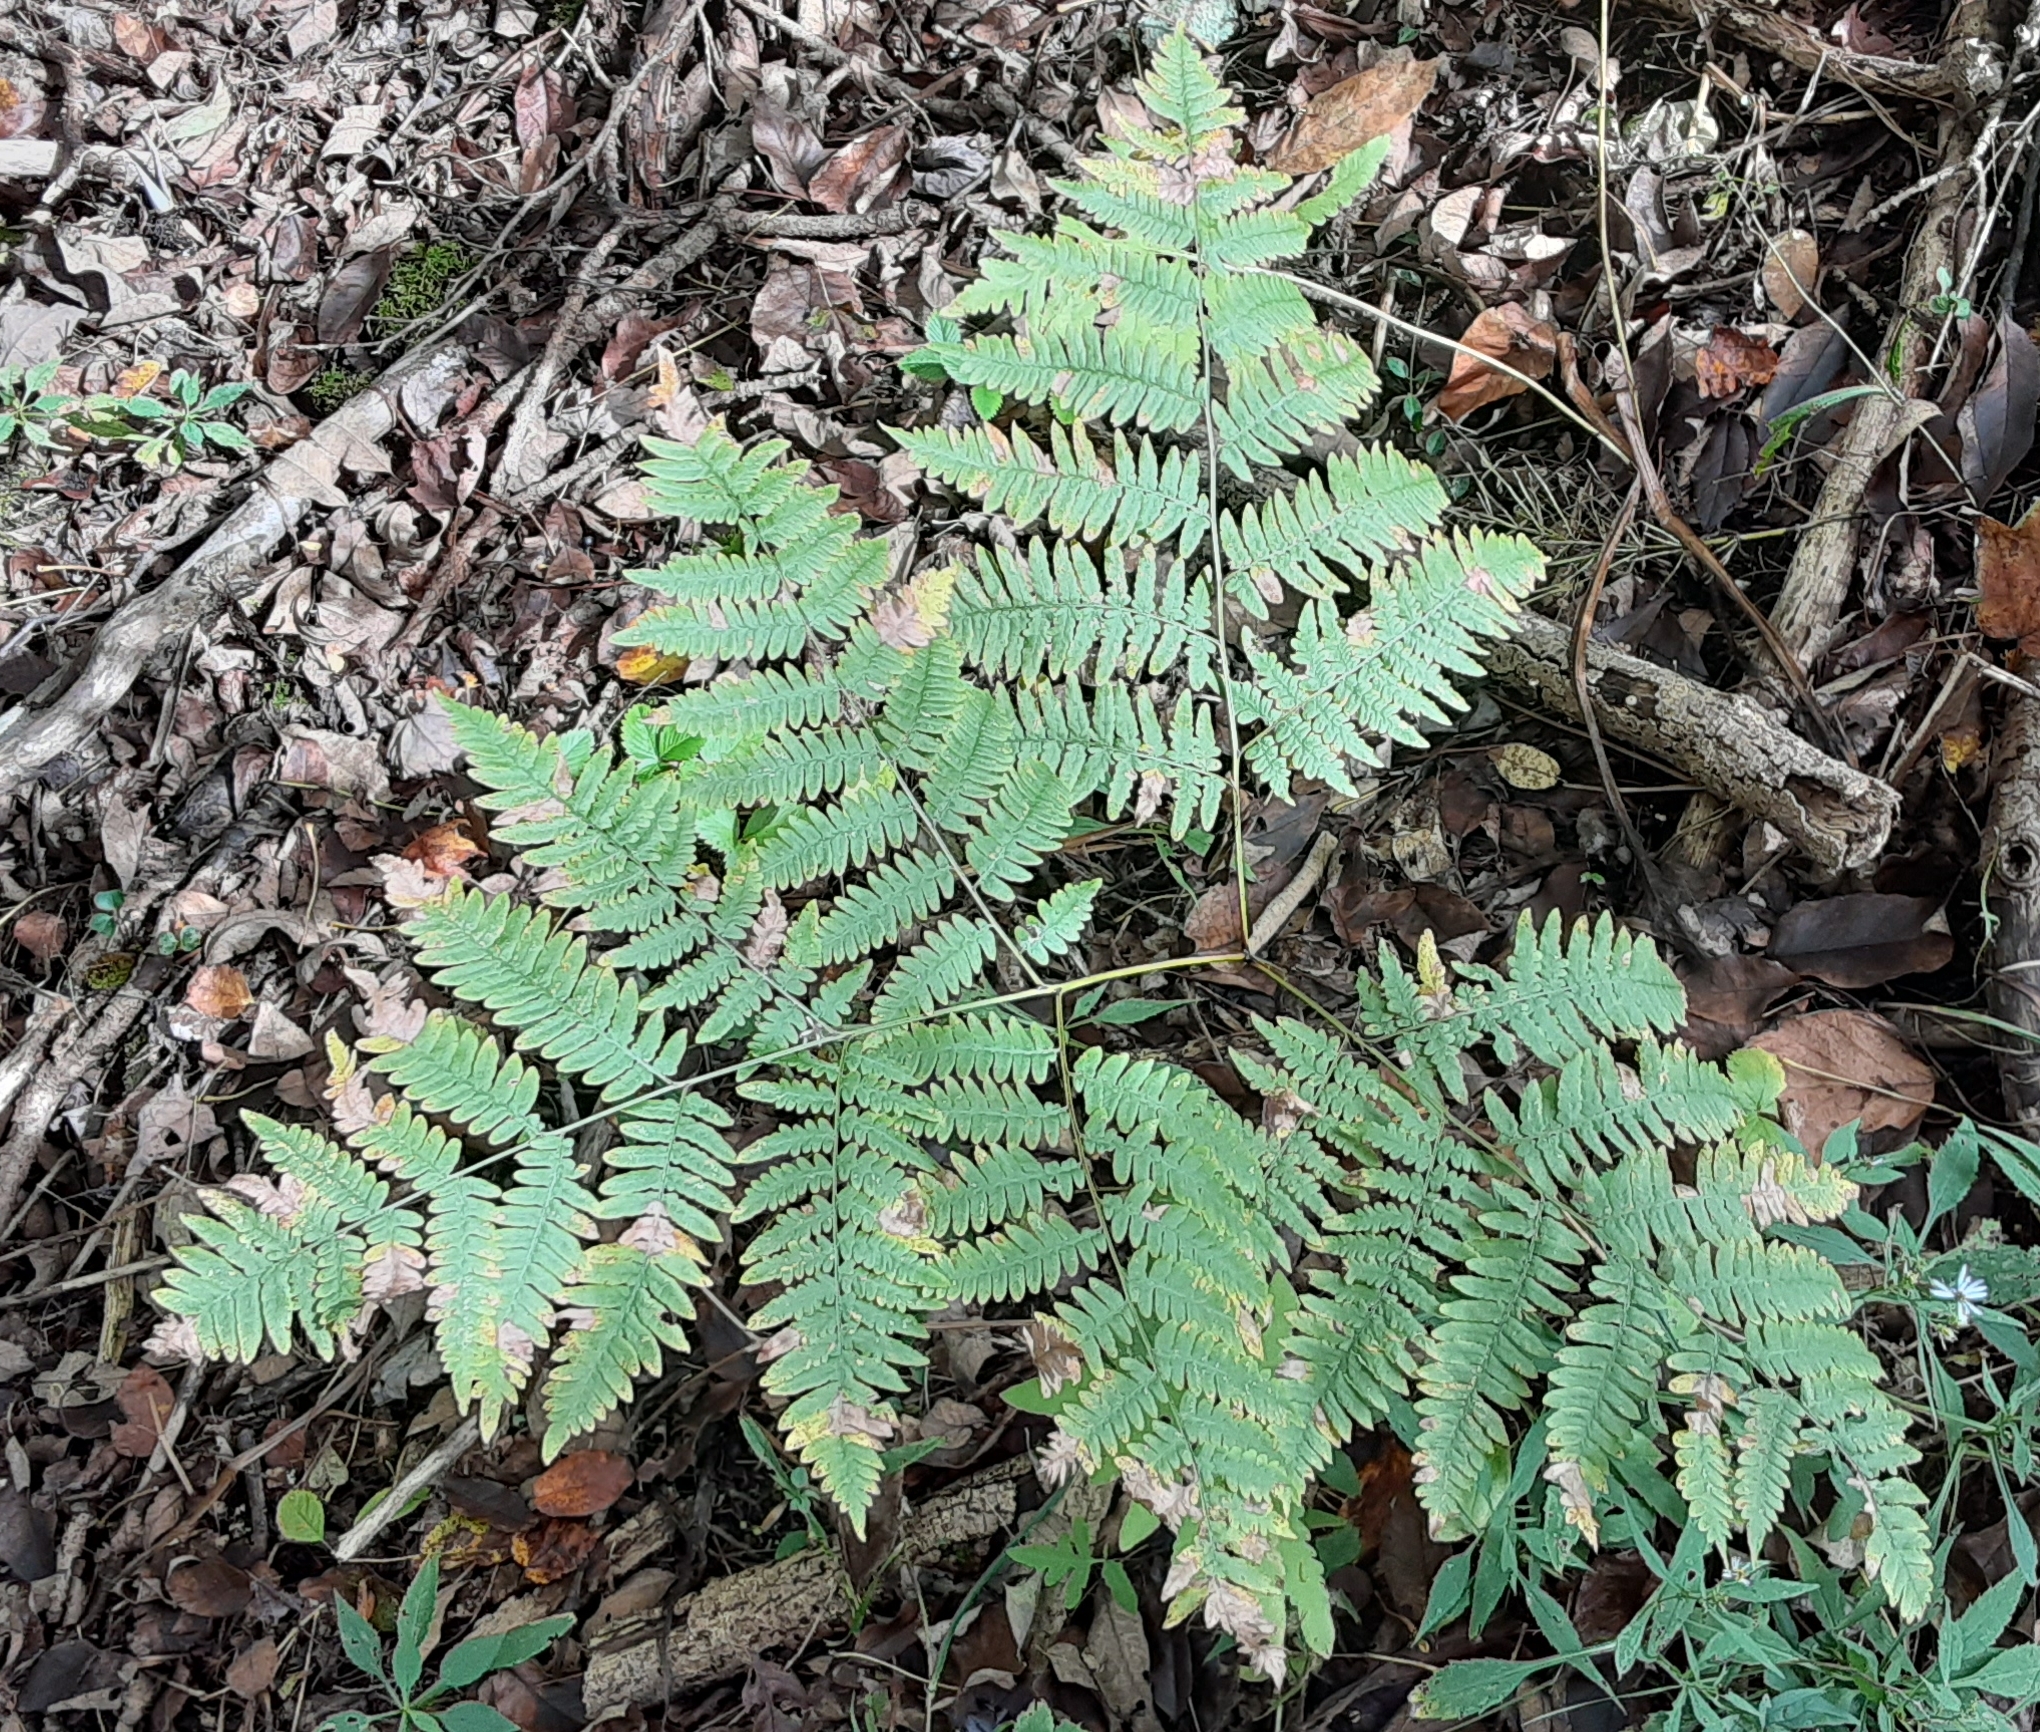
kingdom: Plantae
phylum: Tracheophyta
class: Polypodiopsida
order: Polypodiales
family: Dennstaedtiaceae
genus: Pteridium
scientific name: Pteridium aquilinum
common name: Bracken
